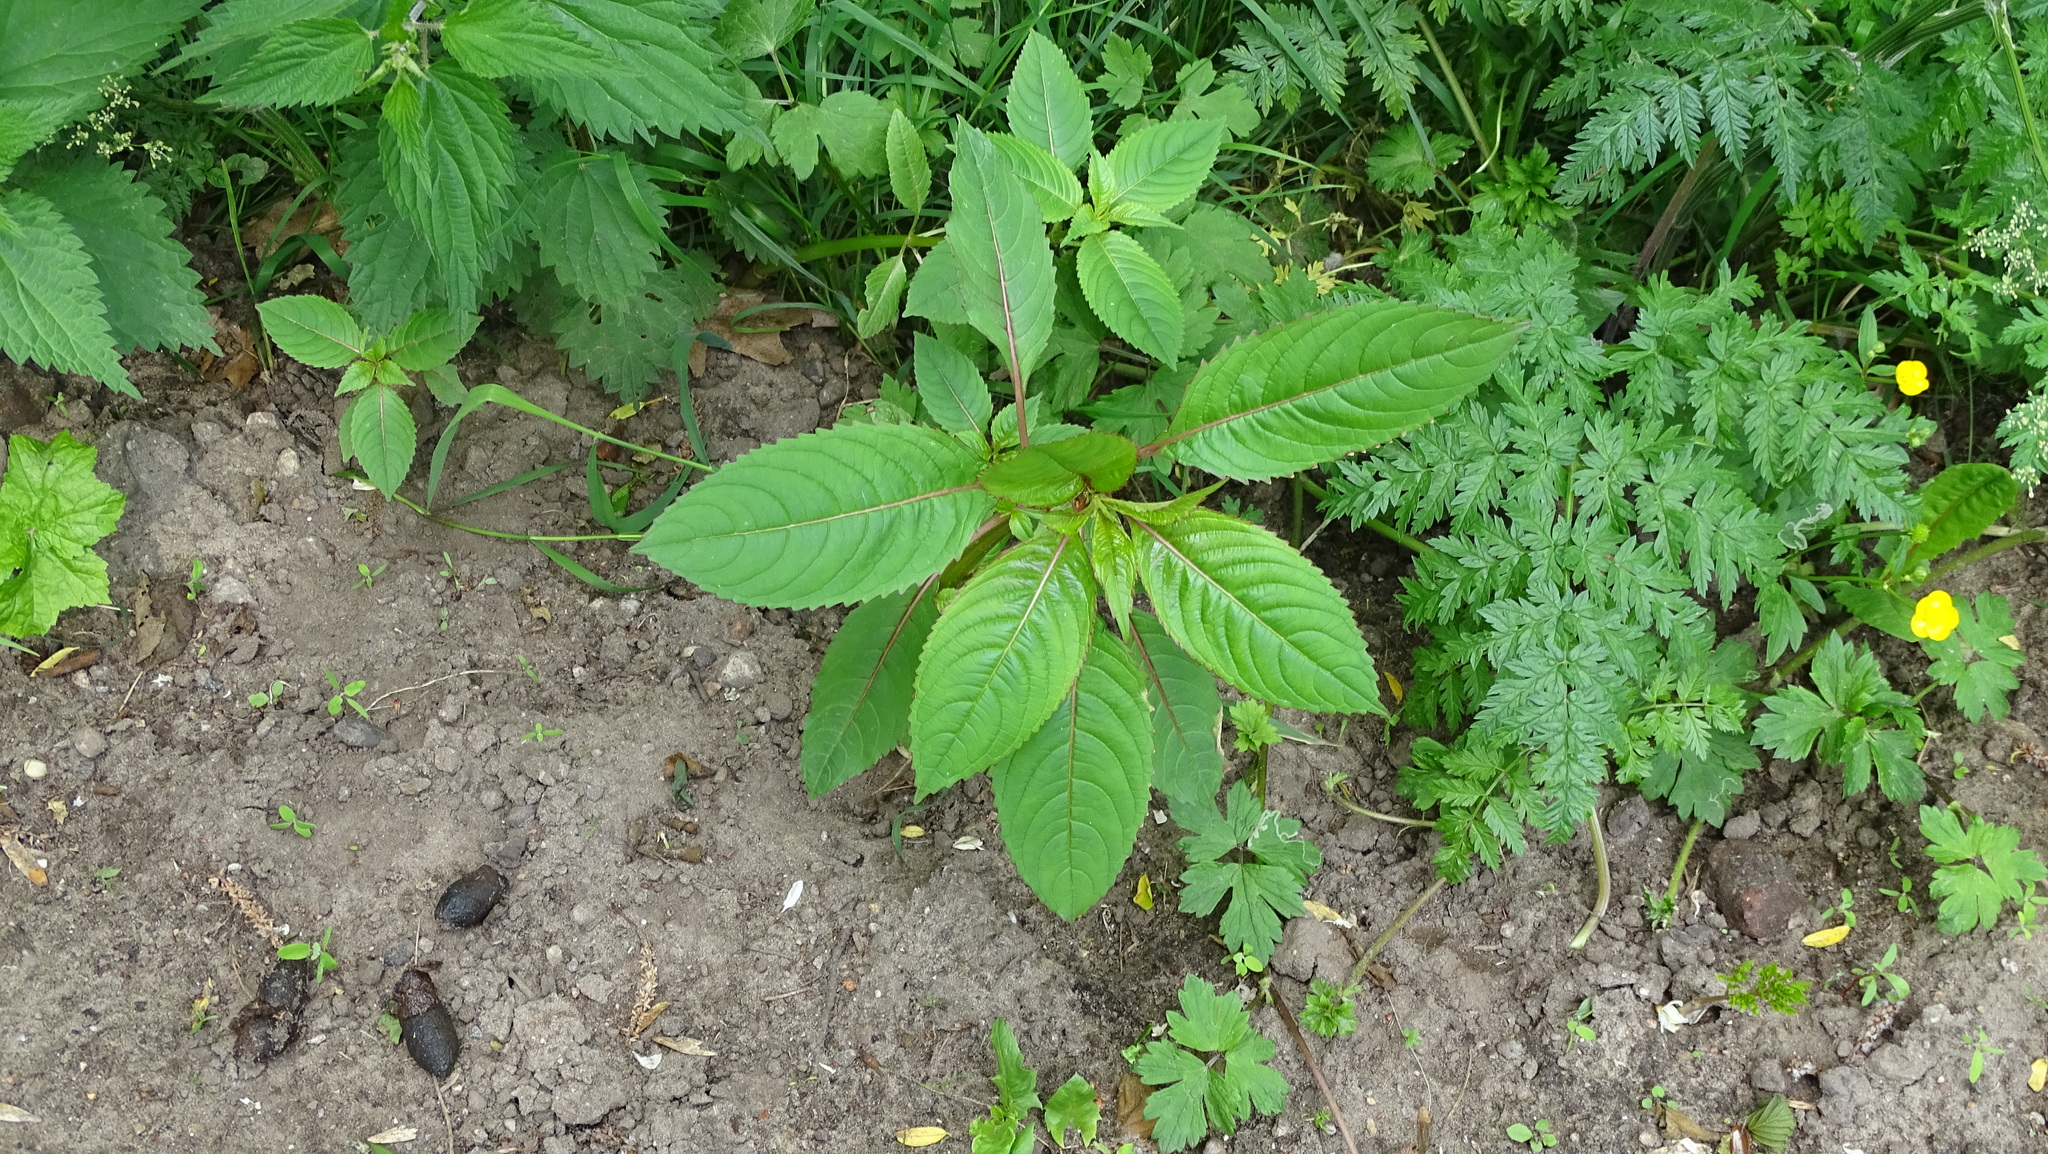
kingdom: Plantae
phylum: Tracheophyta
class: Magnoliopsida
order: Ericales
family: Balsaminaceae
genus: Impatiens
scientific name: Impatiens glandulifera
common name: Himalayan balsam
